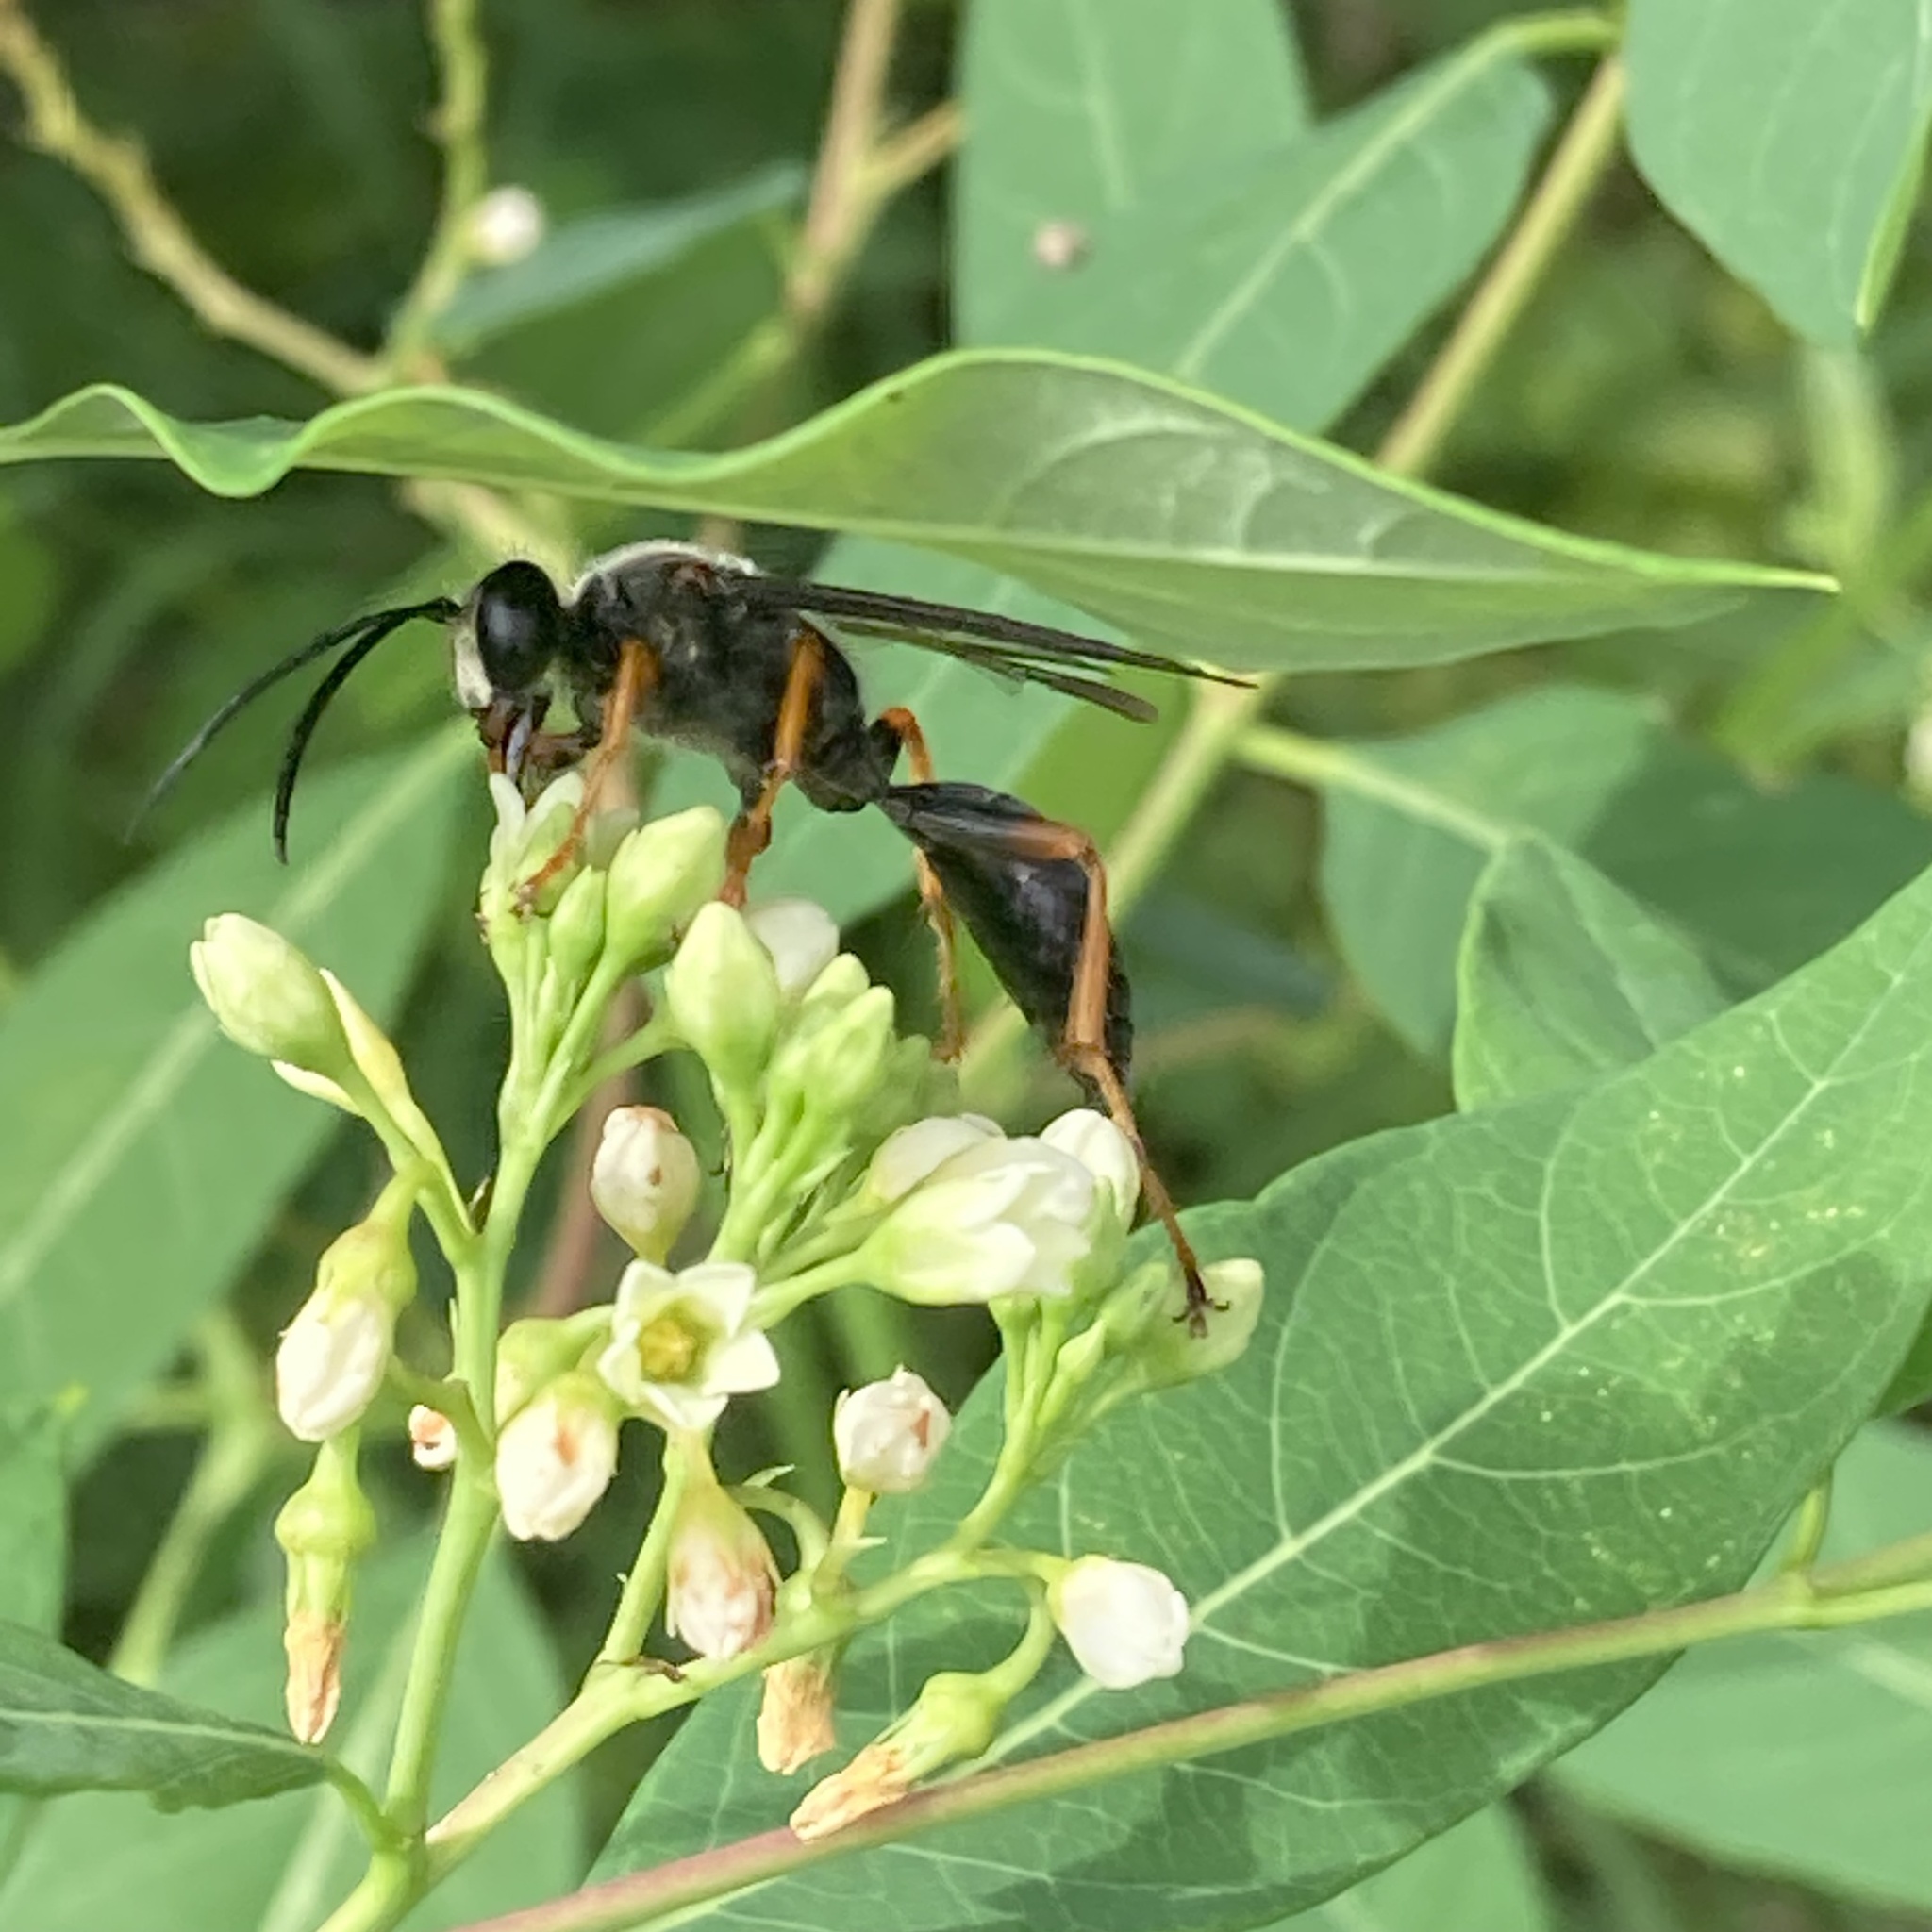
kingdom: Animalia
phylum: Arthropoda
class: Insecta
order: Hymenoptera
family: Sphecidae
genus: Sphex
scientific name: Sphex nudus
